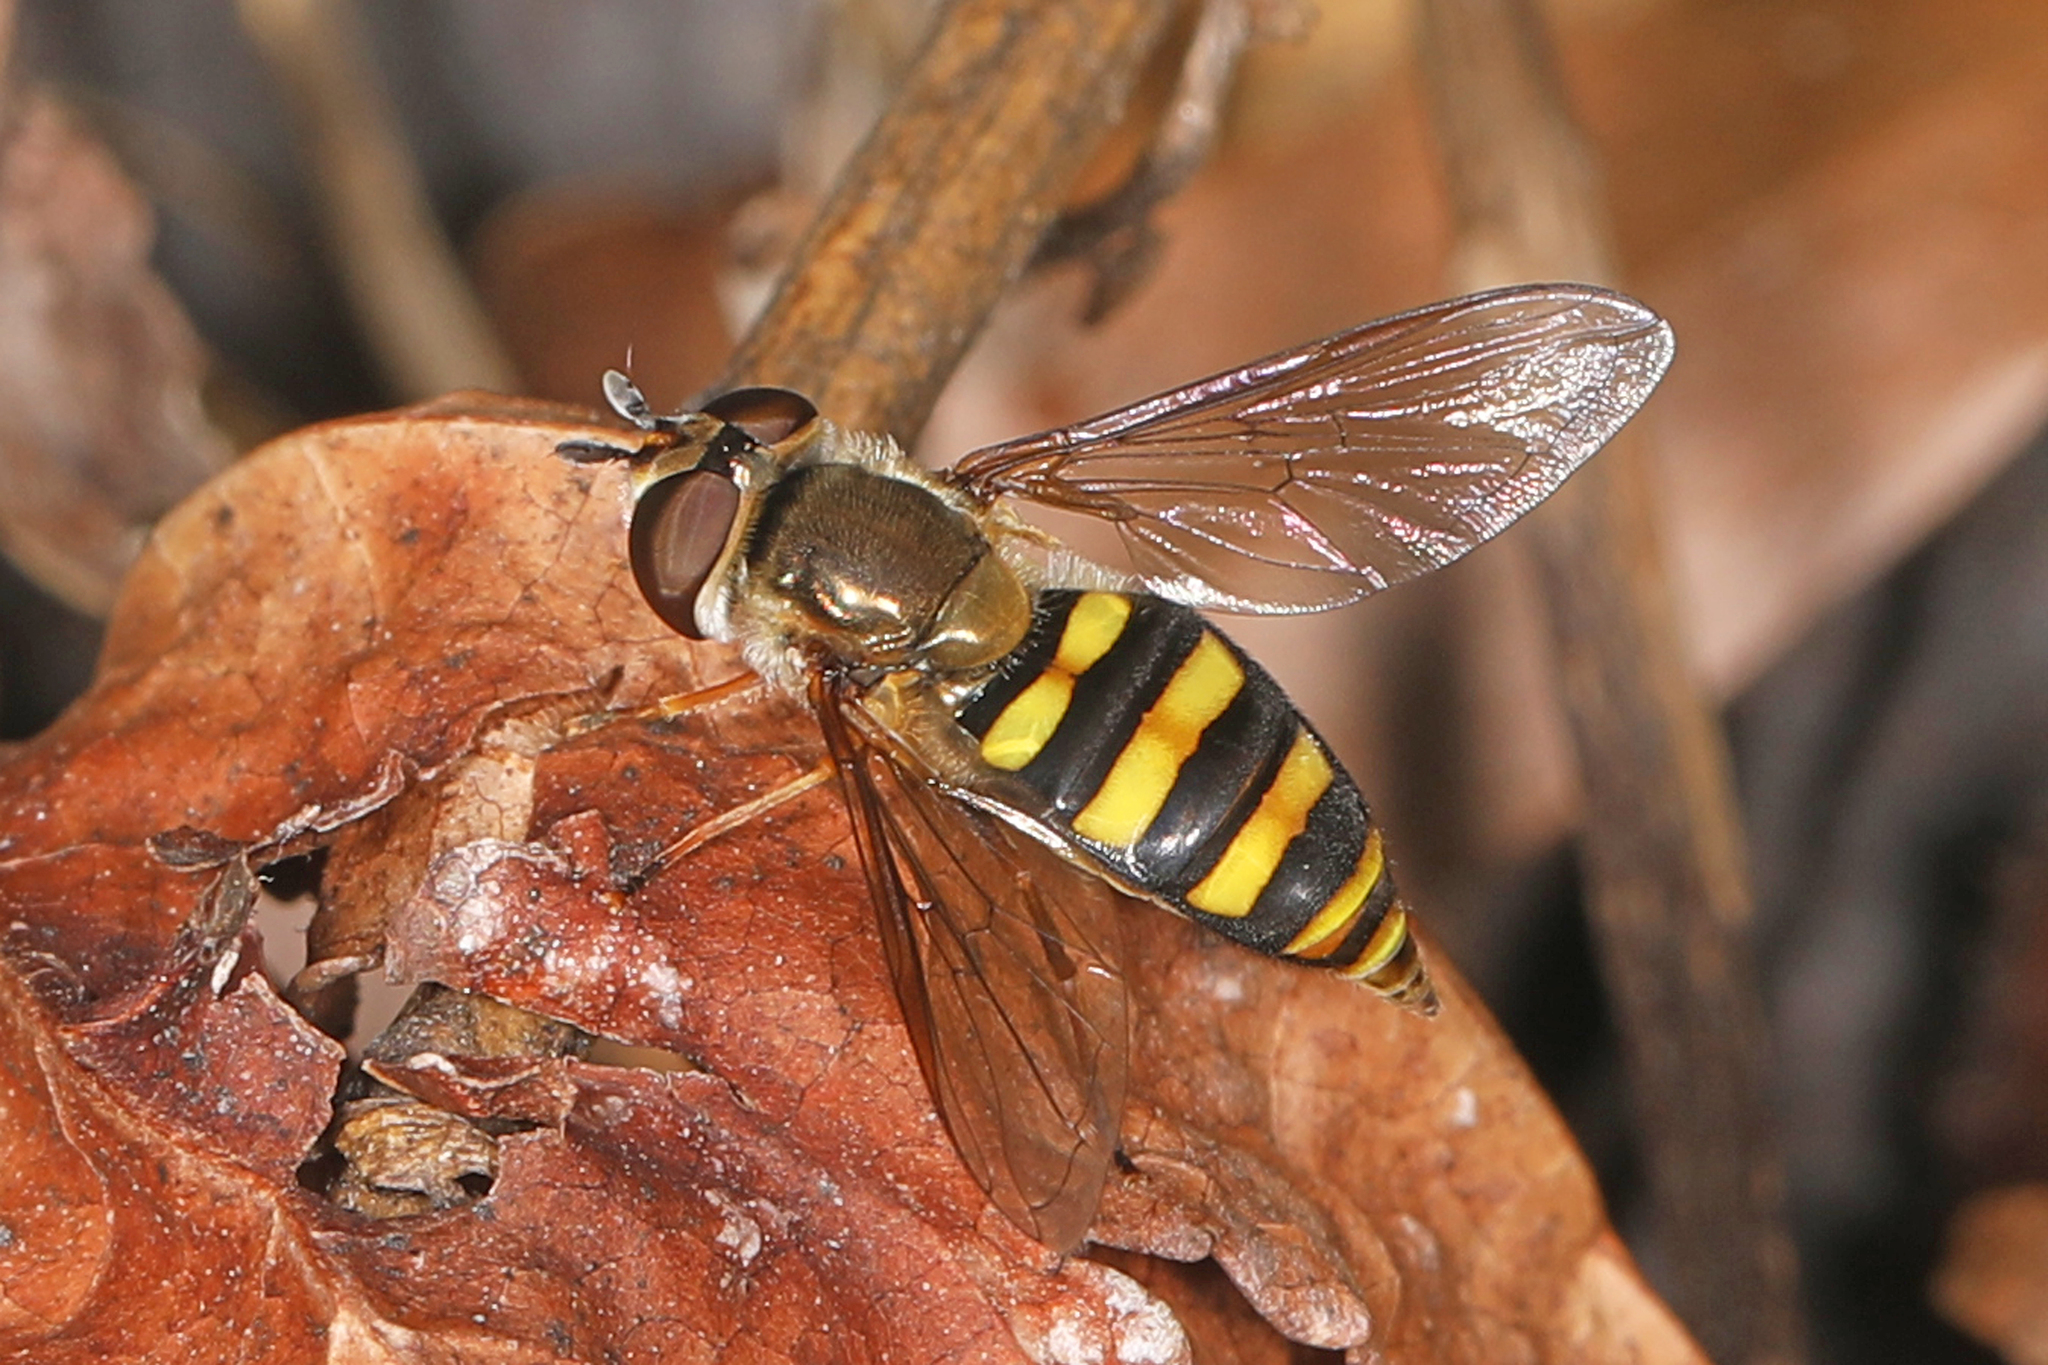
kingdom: Animalia
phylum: Arthropoda
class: Insecta
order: Diptera
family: Syrphidae
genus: Eupeodes
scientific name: Eupeodes
